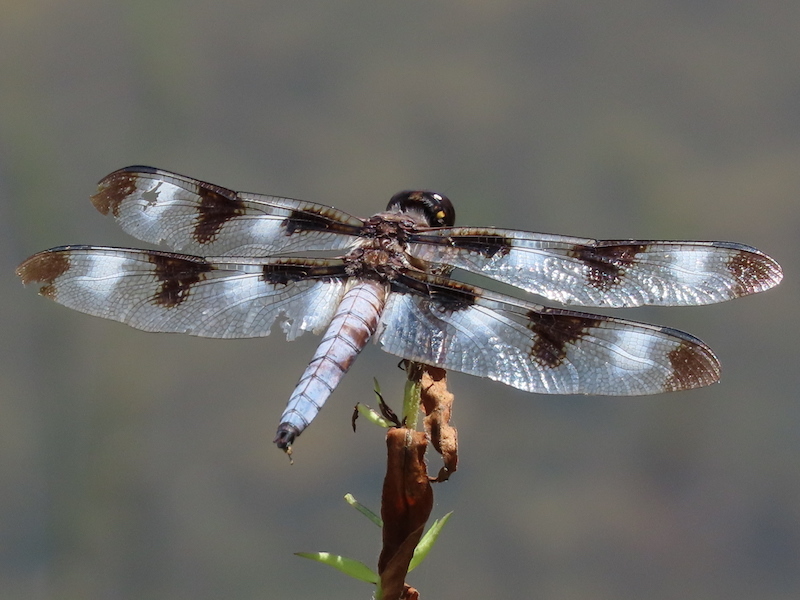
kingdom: Animalia
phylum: Arthropoda
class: Insecta
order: Odonata
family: Libellulidae
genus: Libellula
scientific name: Libellula pulchella
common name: Twelve-spotted skimmer
